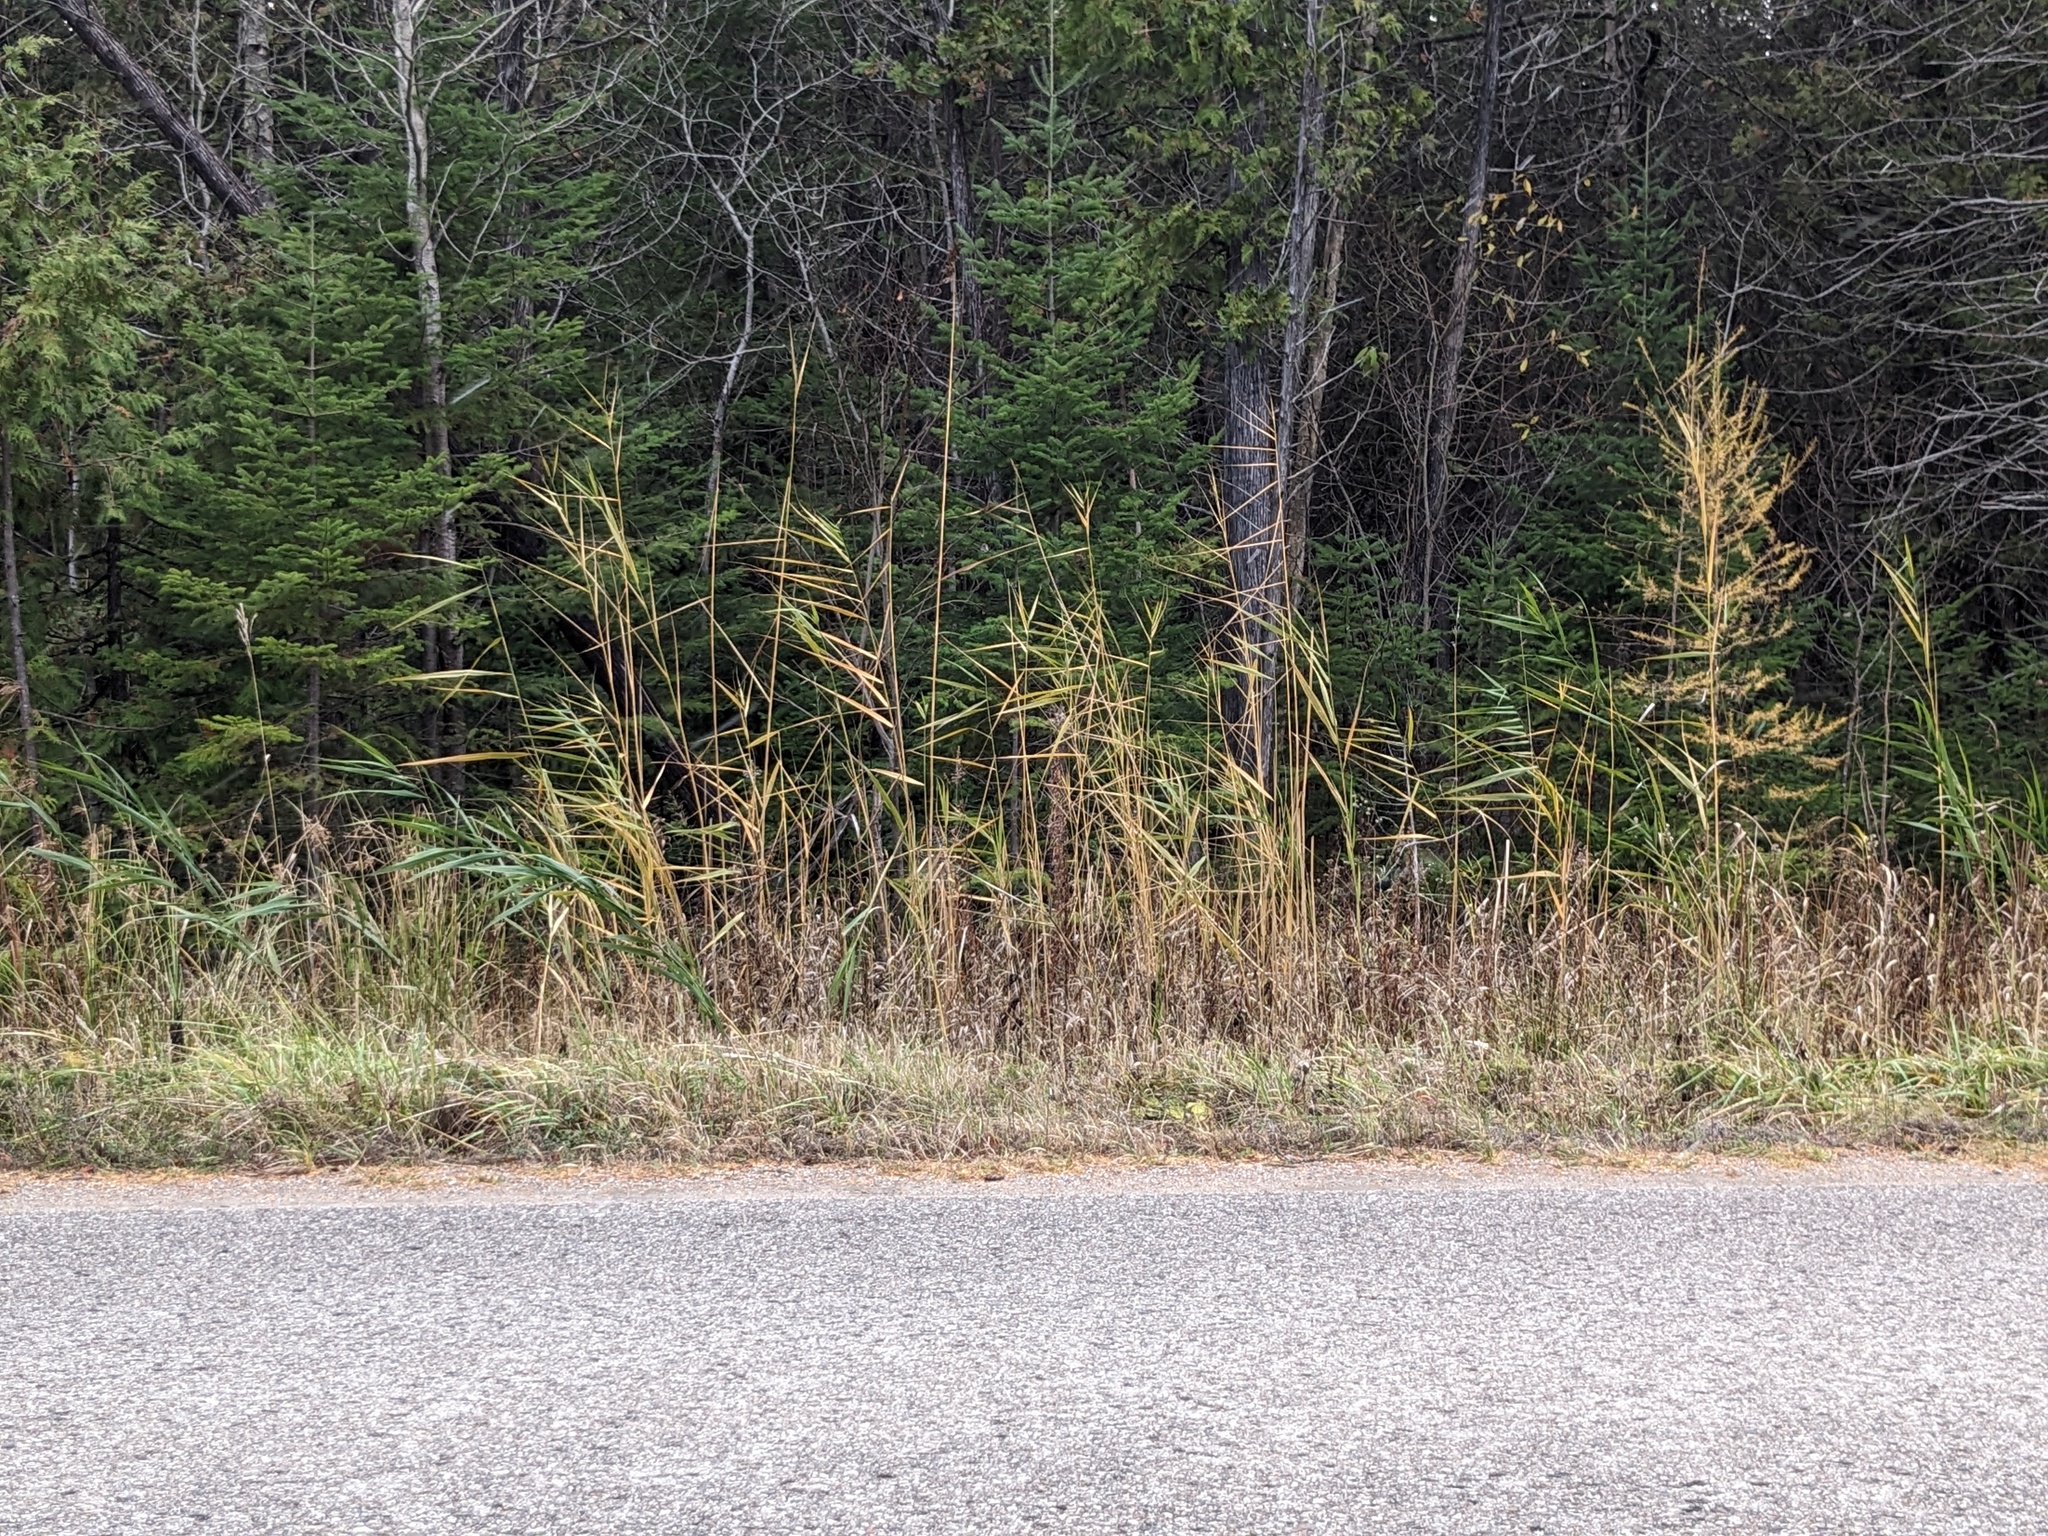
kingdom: Plantae
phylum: Tracheophyta
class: Liliopsida
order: Poales
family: Poaceae
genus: Phragmites
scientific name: Phragmites australis
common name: Common reed
